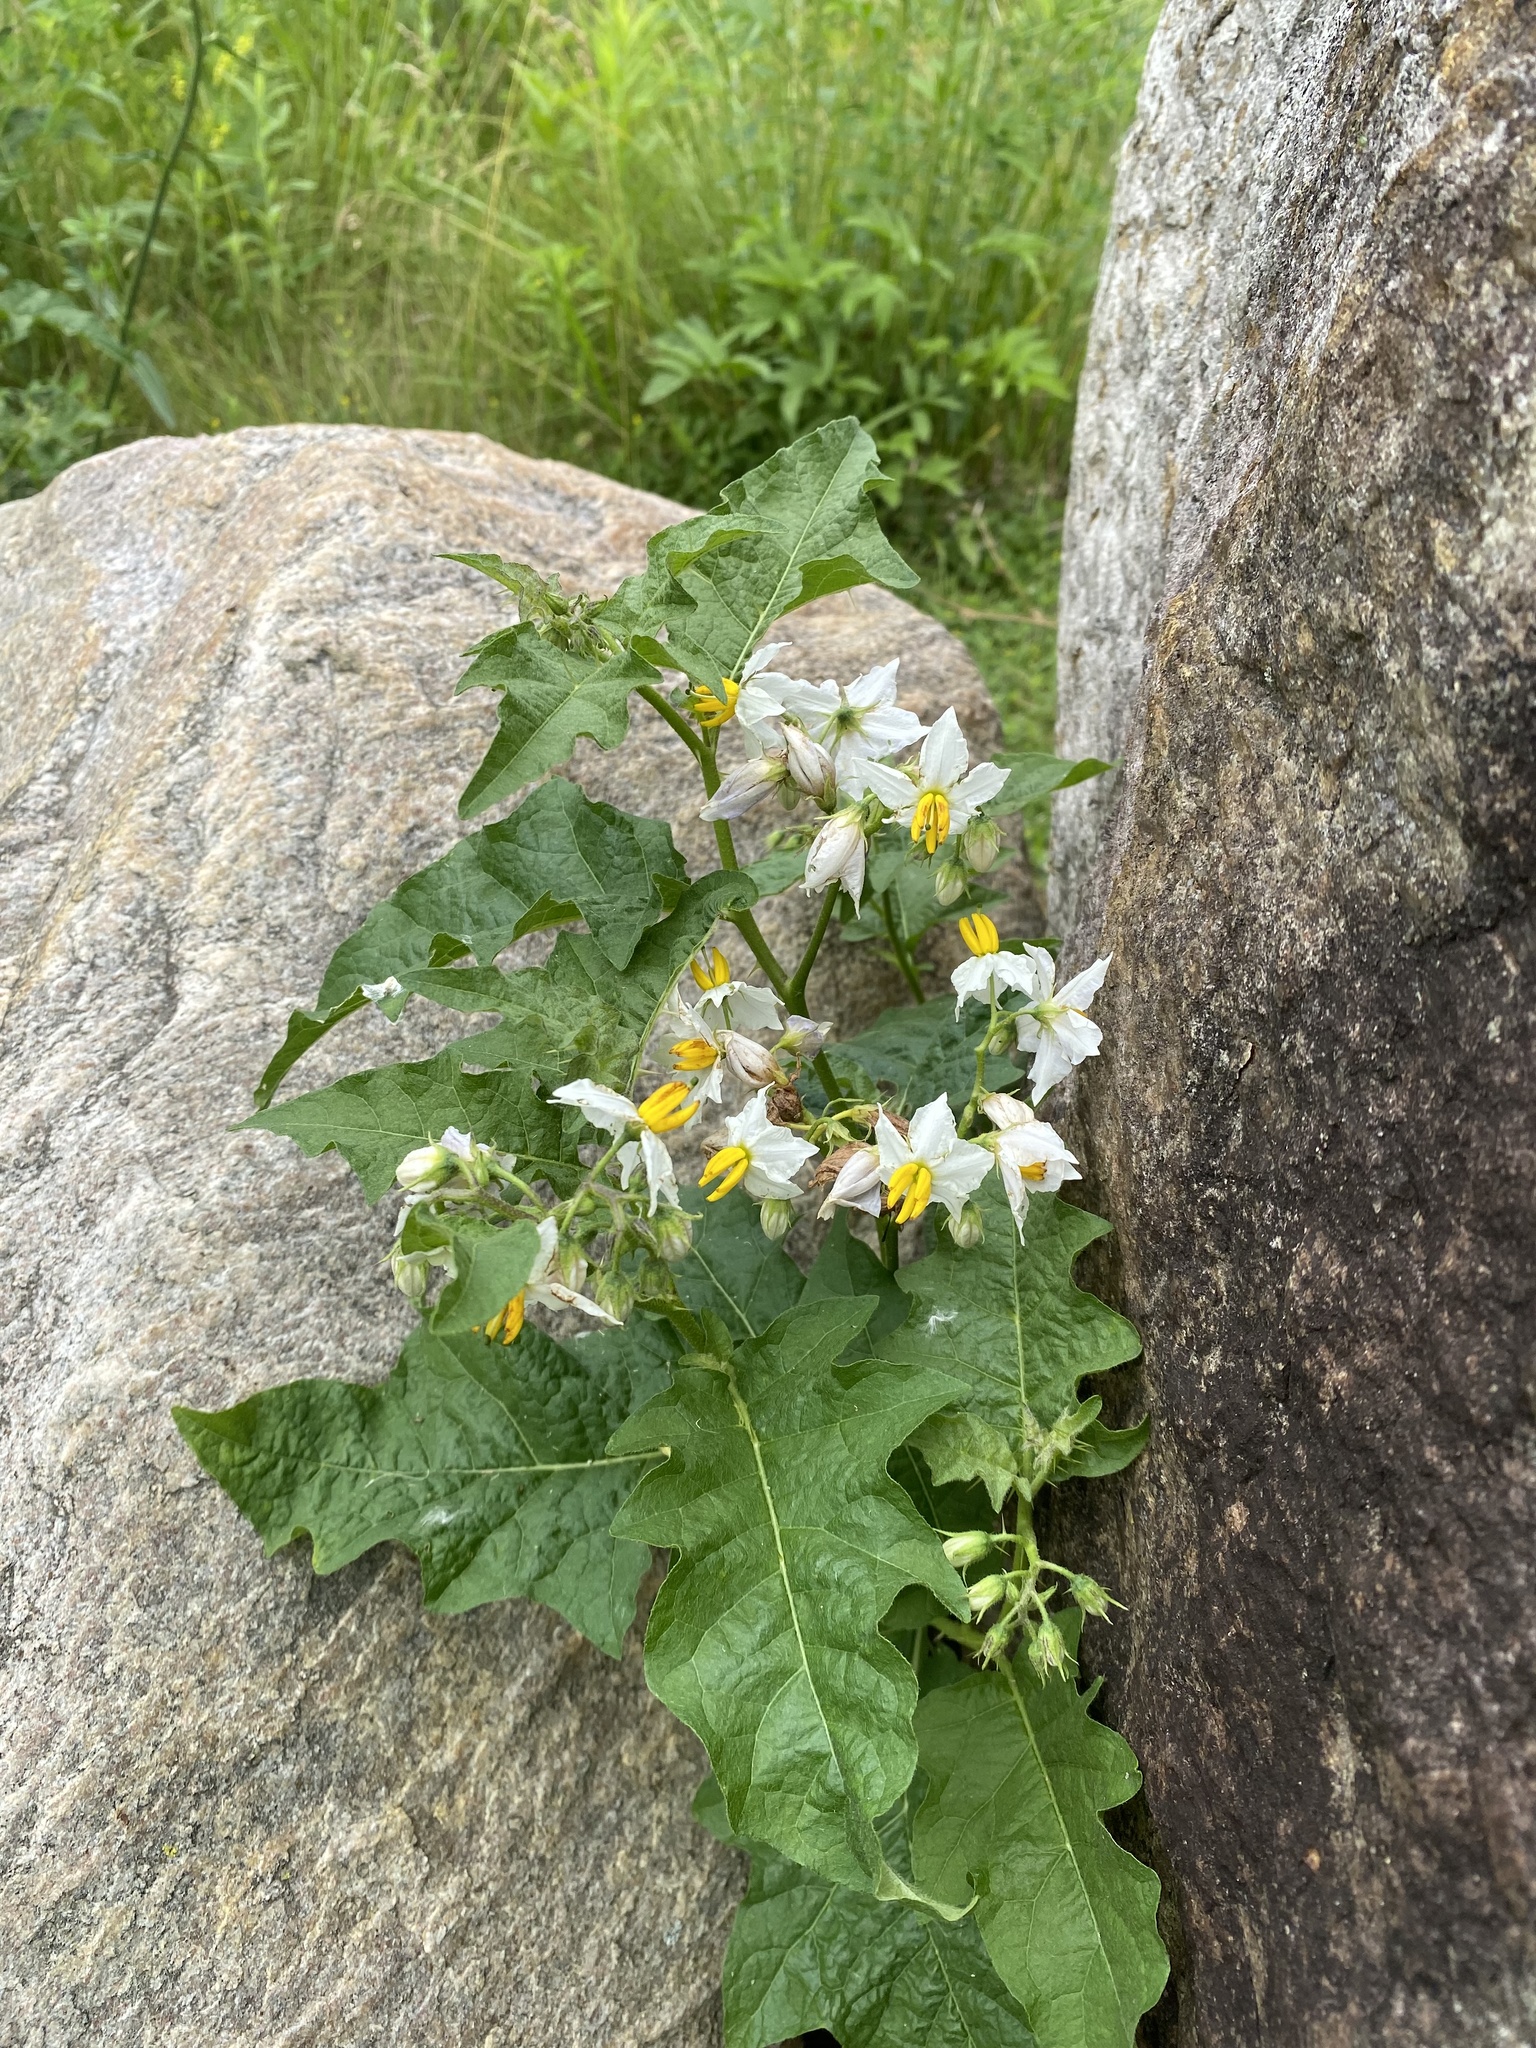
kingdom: Plantae
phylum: Tracheophyta
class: Magnoliopsida
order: Solanales
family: Solanaceae
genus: Solanum
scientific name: Solanum carolinense
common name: Horse-nettle
